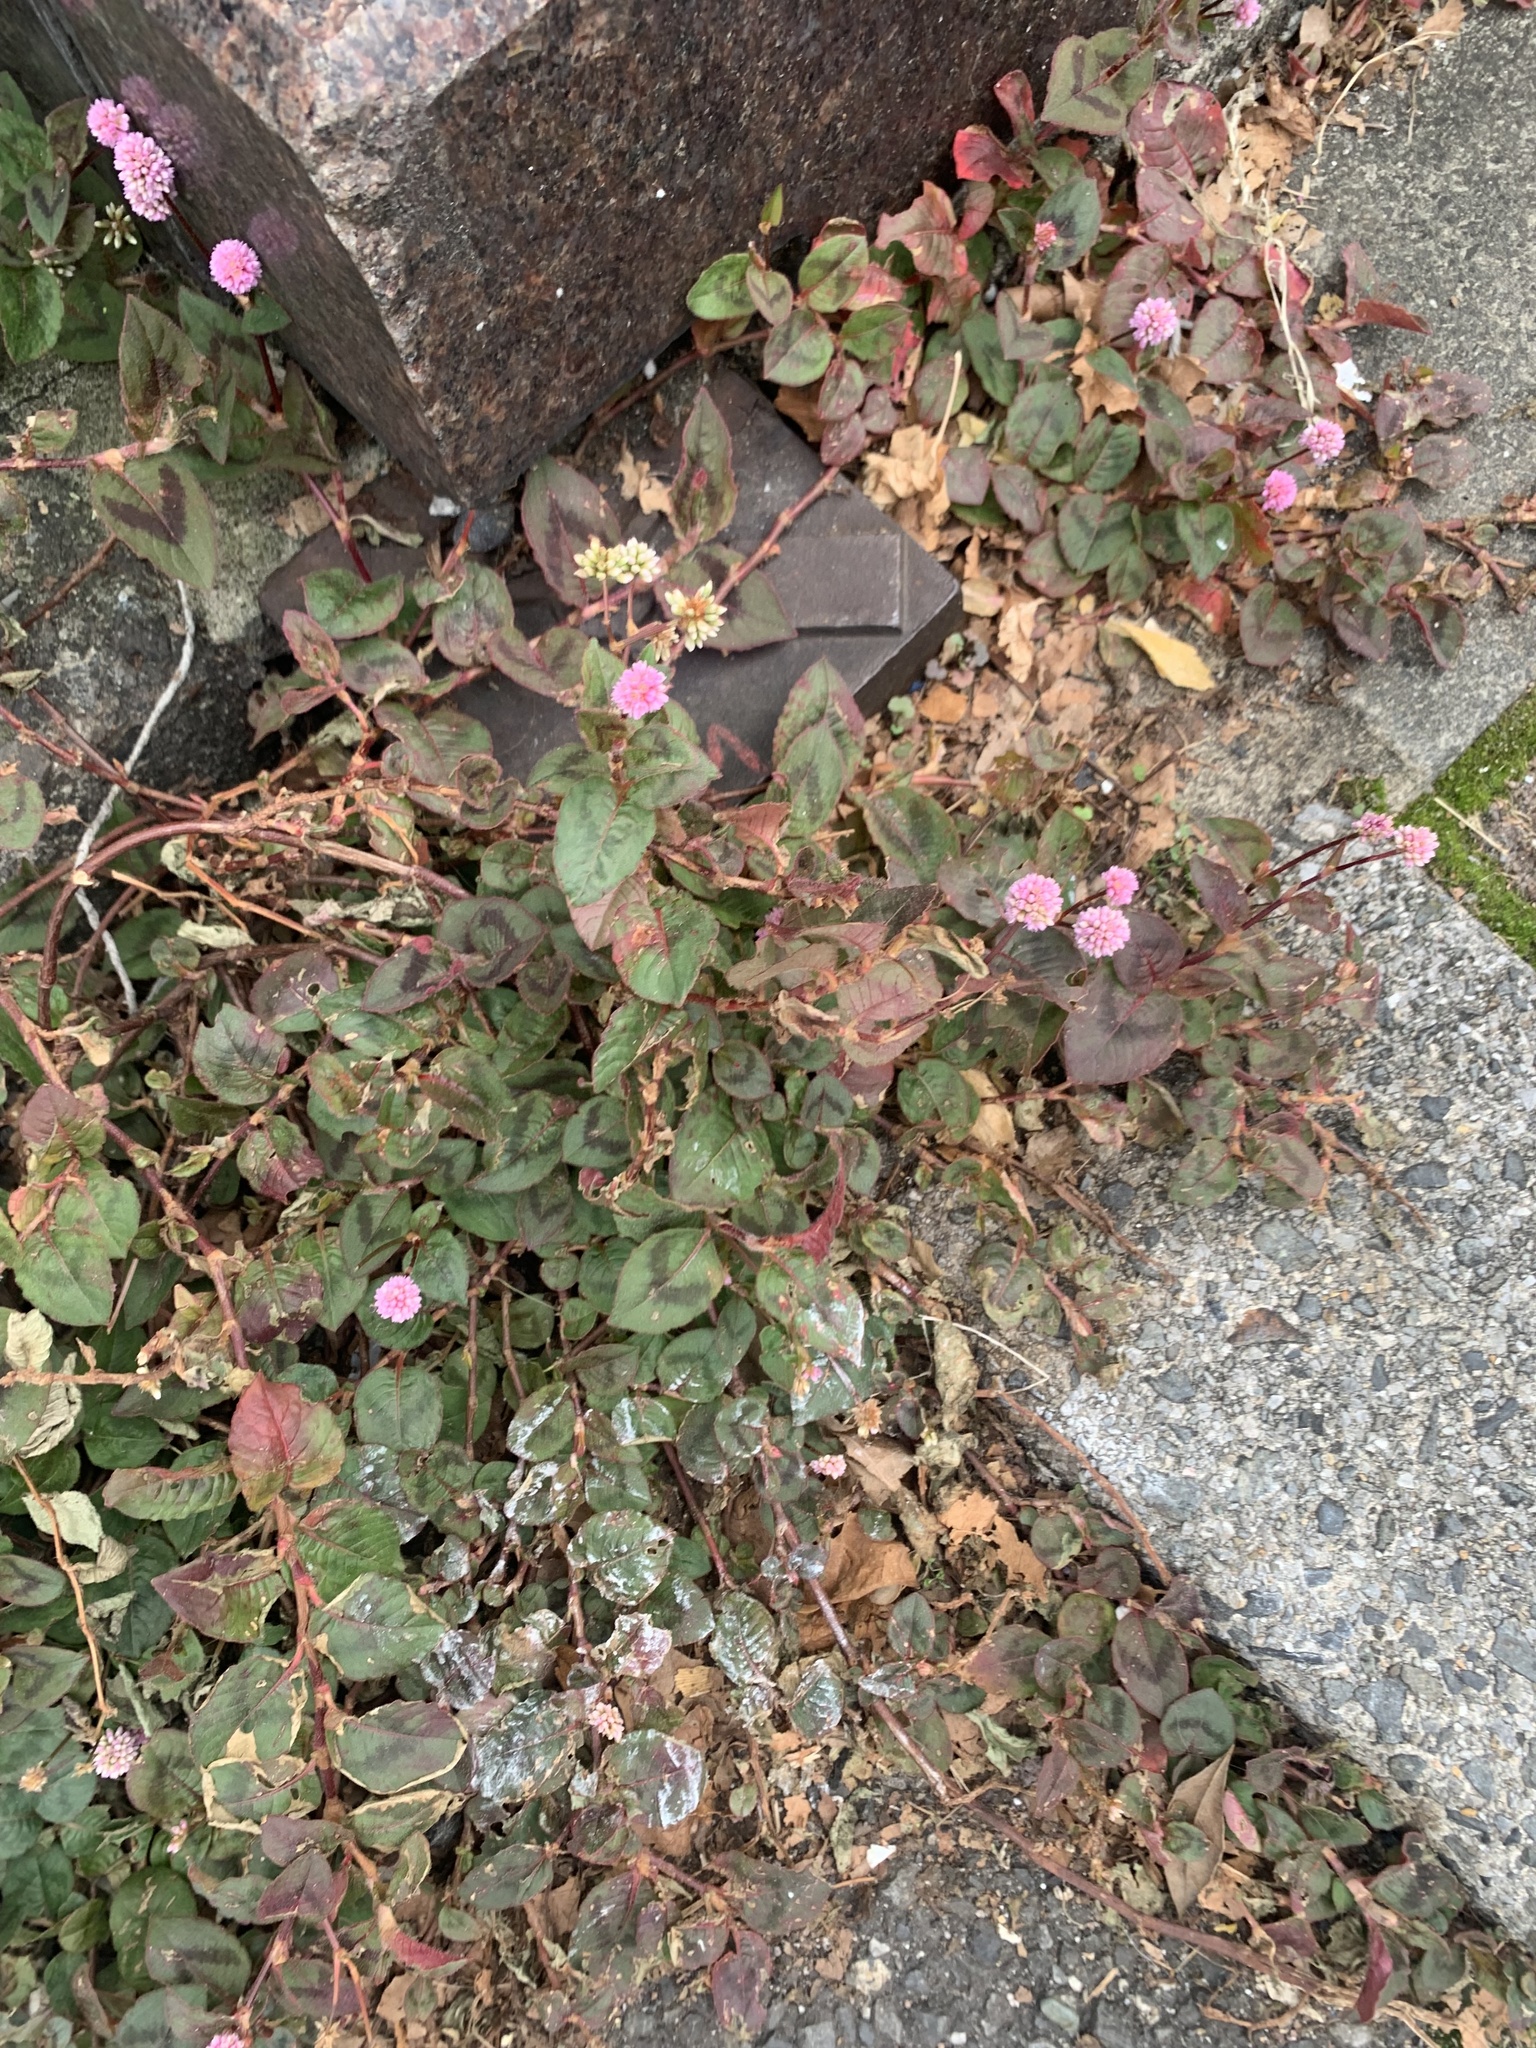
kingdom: Plantae
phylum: Tracheophyta
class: Magnoliopsida
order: Caryophyllales
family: Polygonaceae
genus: Persicaria
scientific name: Persicaria capitata
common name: Pinkhead smartweed
